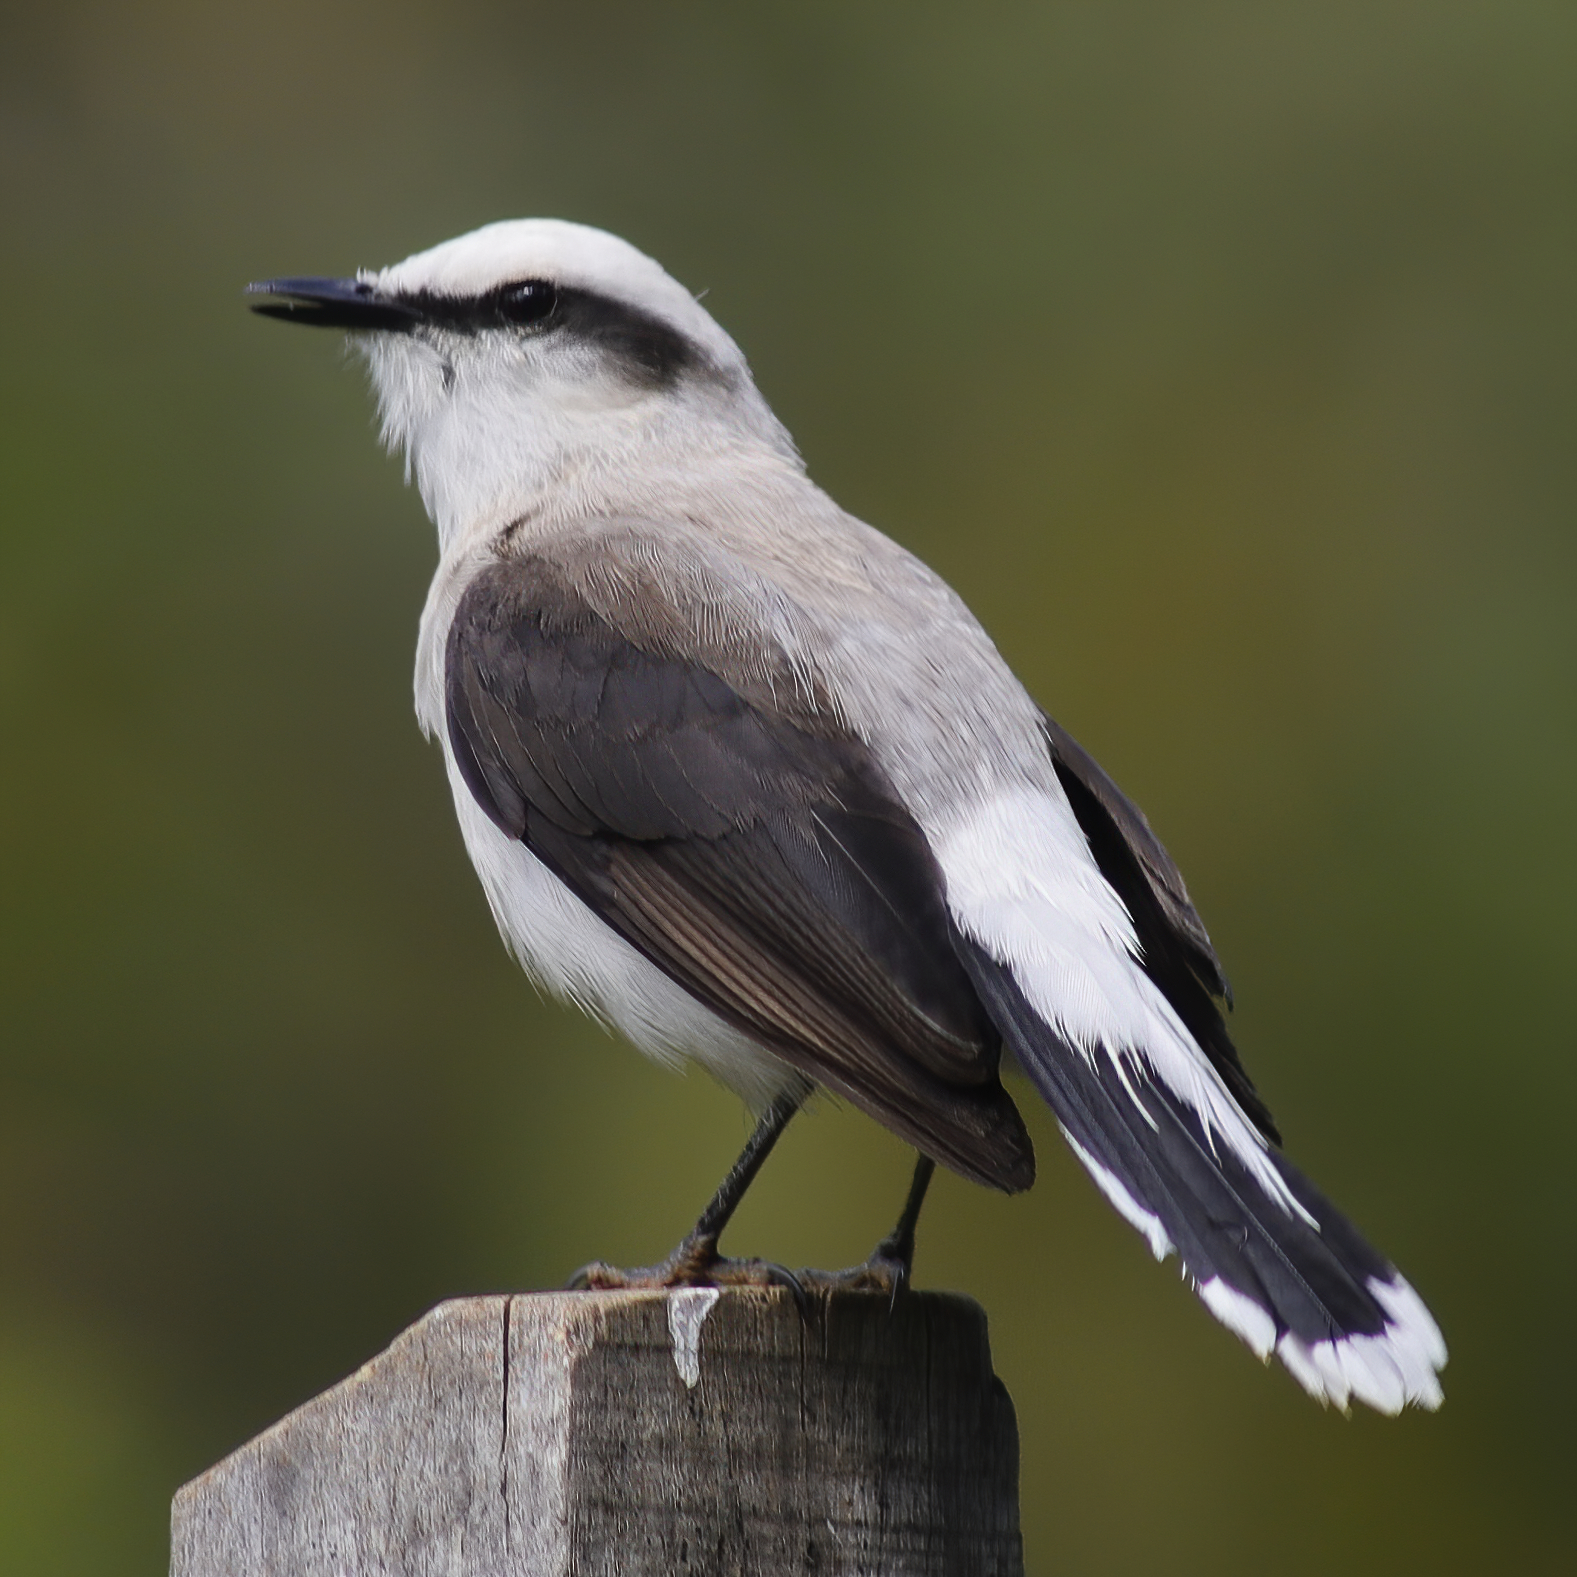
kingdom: Animalia
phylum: Chordata
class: Aves
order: Passeriformes
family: Tyrannidae
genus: Fluvicola
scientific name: Fluvicola nengeta
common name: Masked water tyrant
